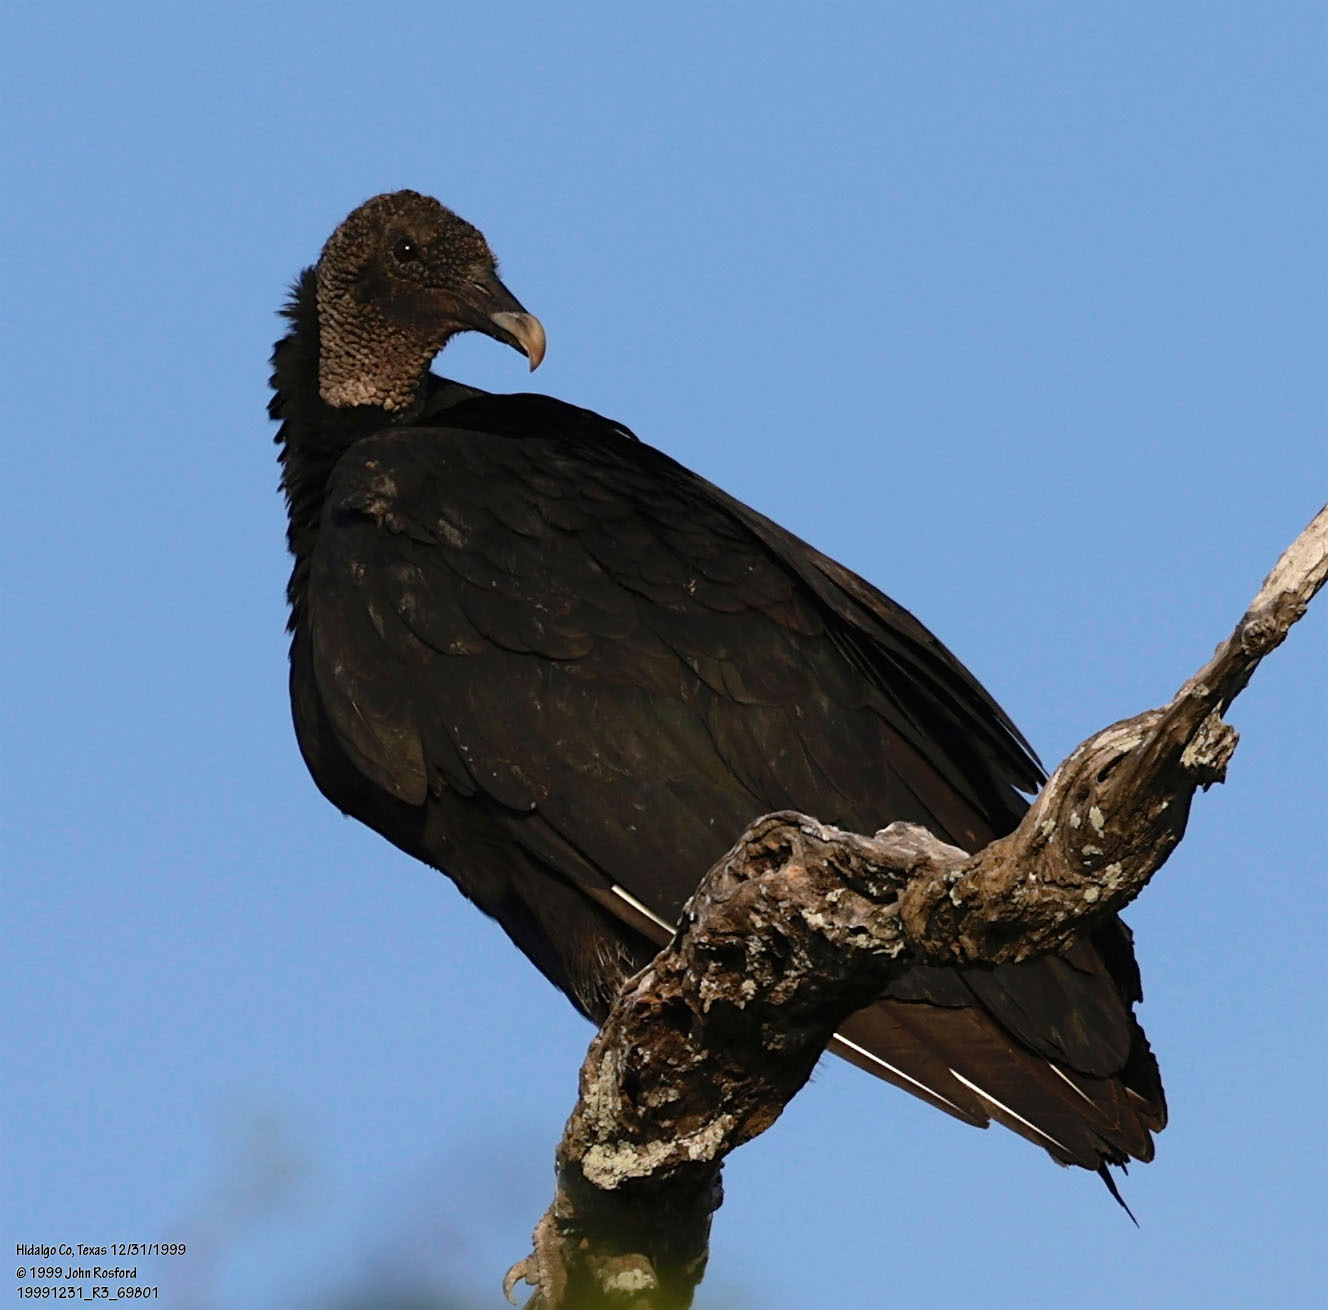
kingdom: Animalia
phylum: Chordata
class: Aves
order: Accipitriformes
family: Cathartidae
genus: Coragyps
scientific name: Coragyps atratus
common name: Black vulture
